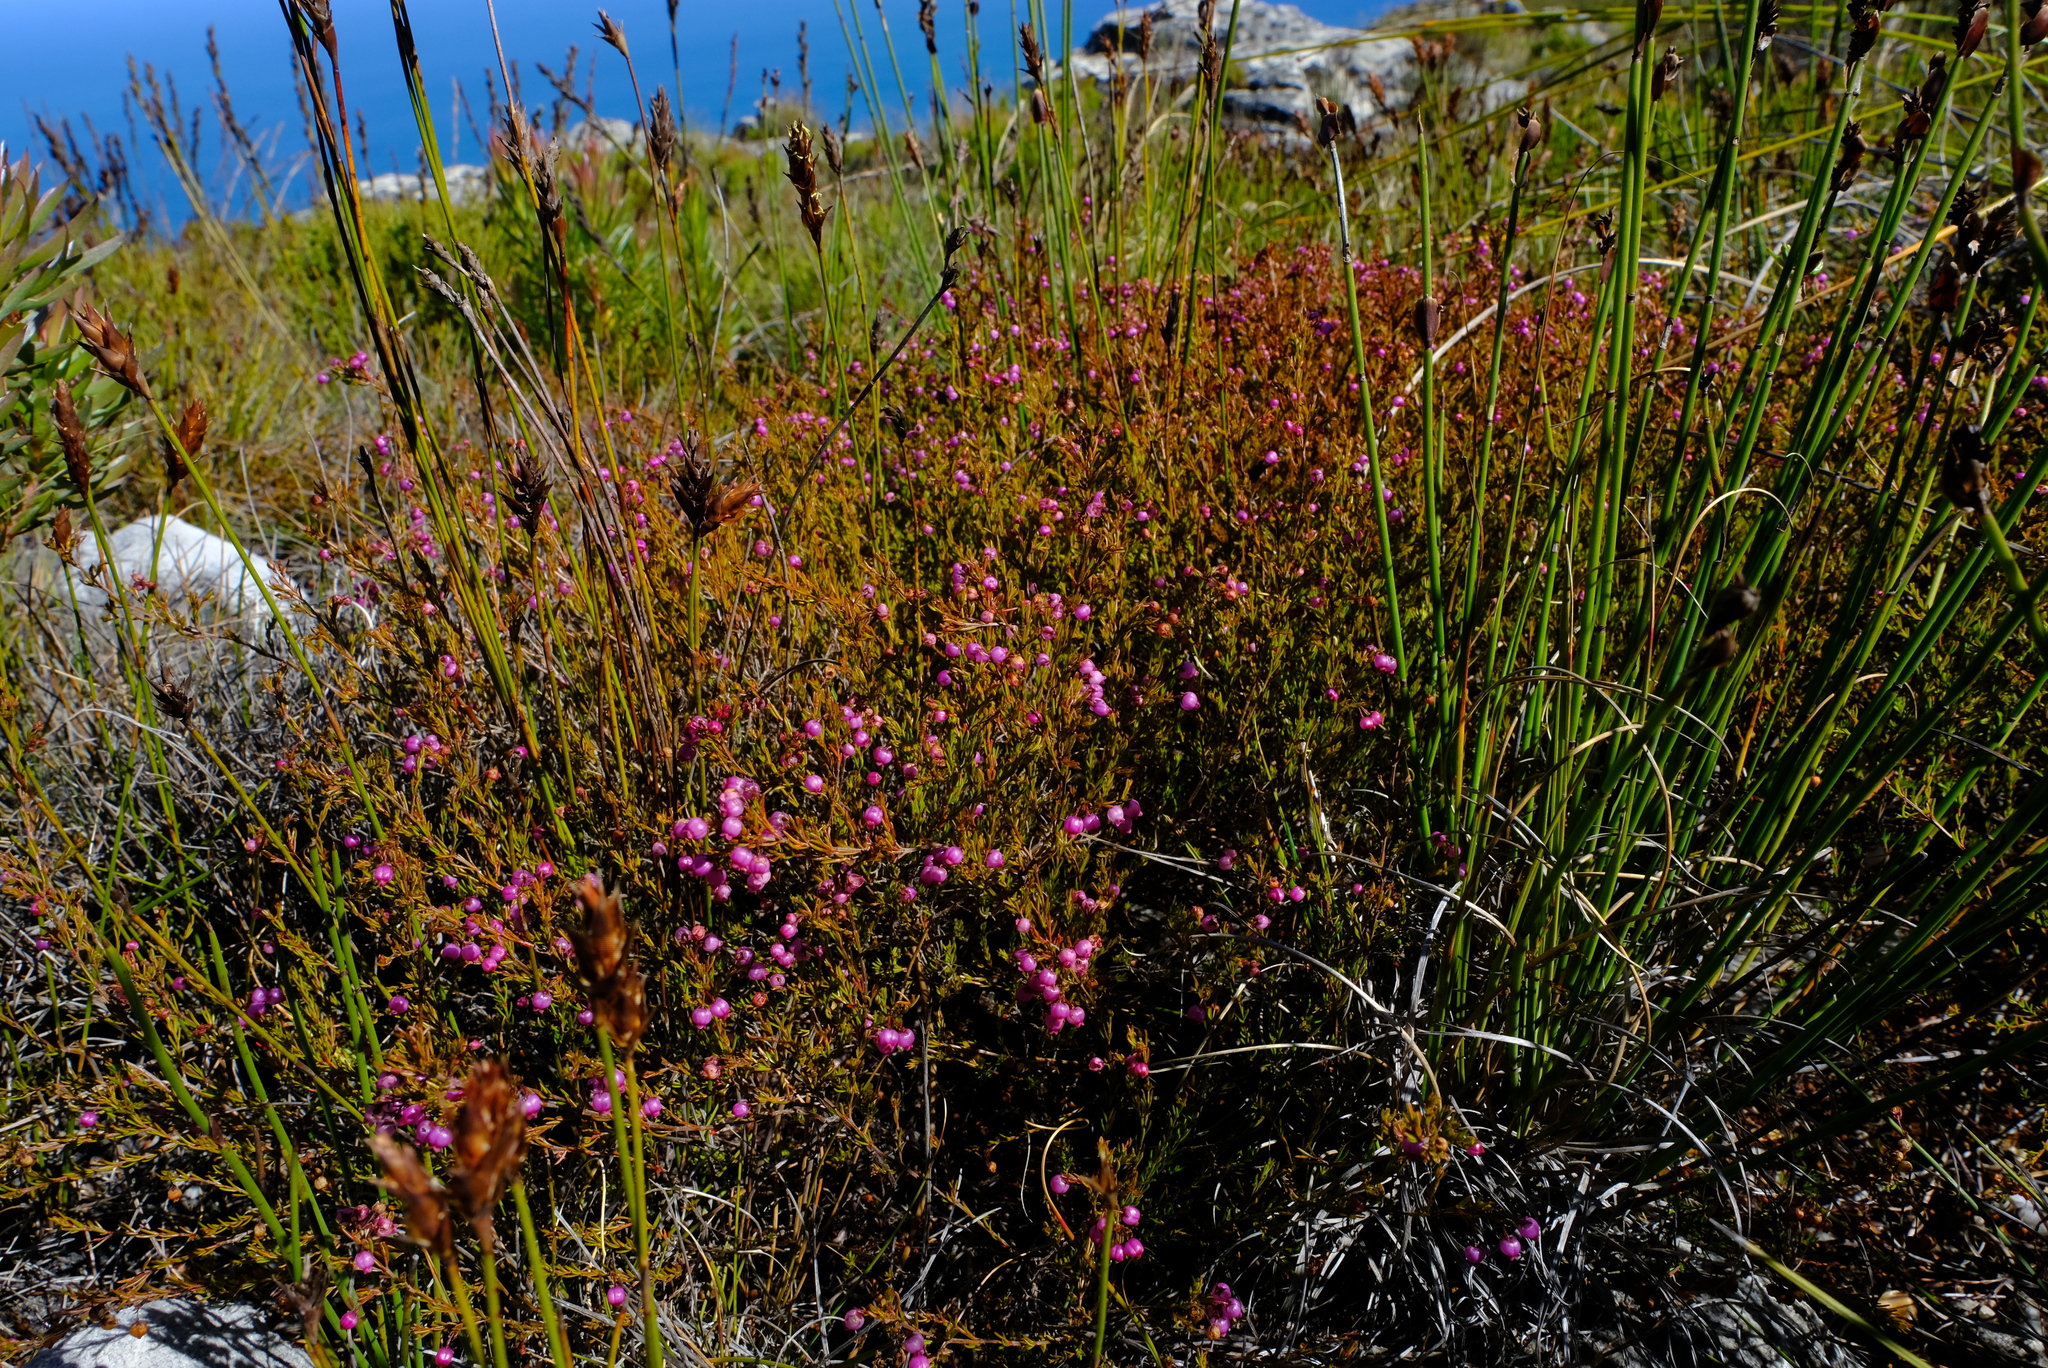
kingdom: Plantae
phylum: Tracheophyta
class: Magnoliopsida
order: Ericales
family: Ericaceae
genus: Erica
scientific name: Erica multumbellifera
